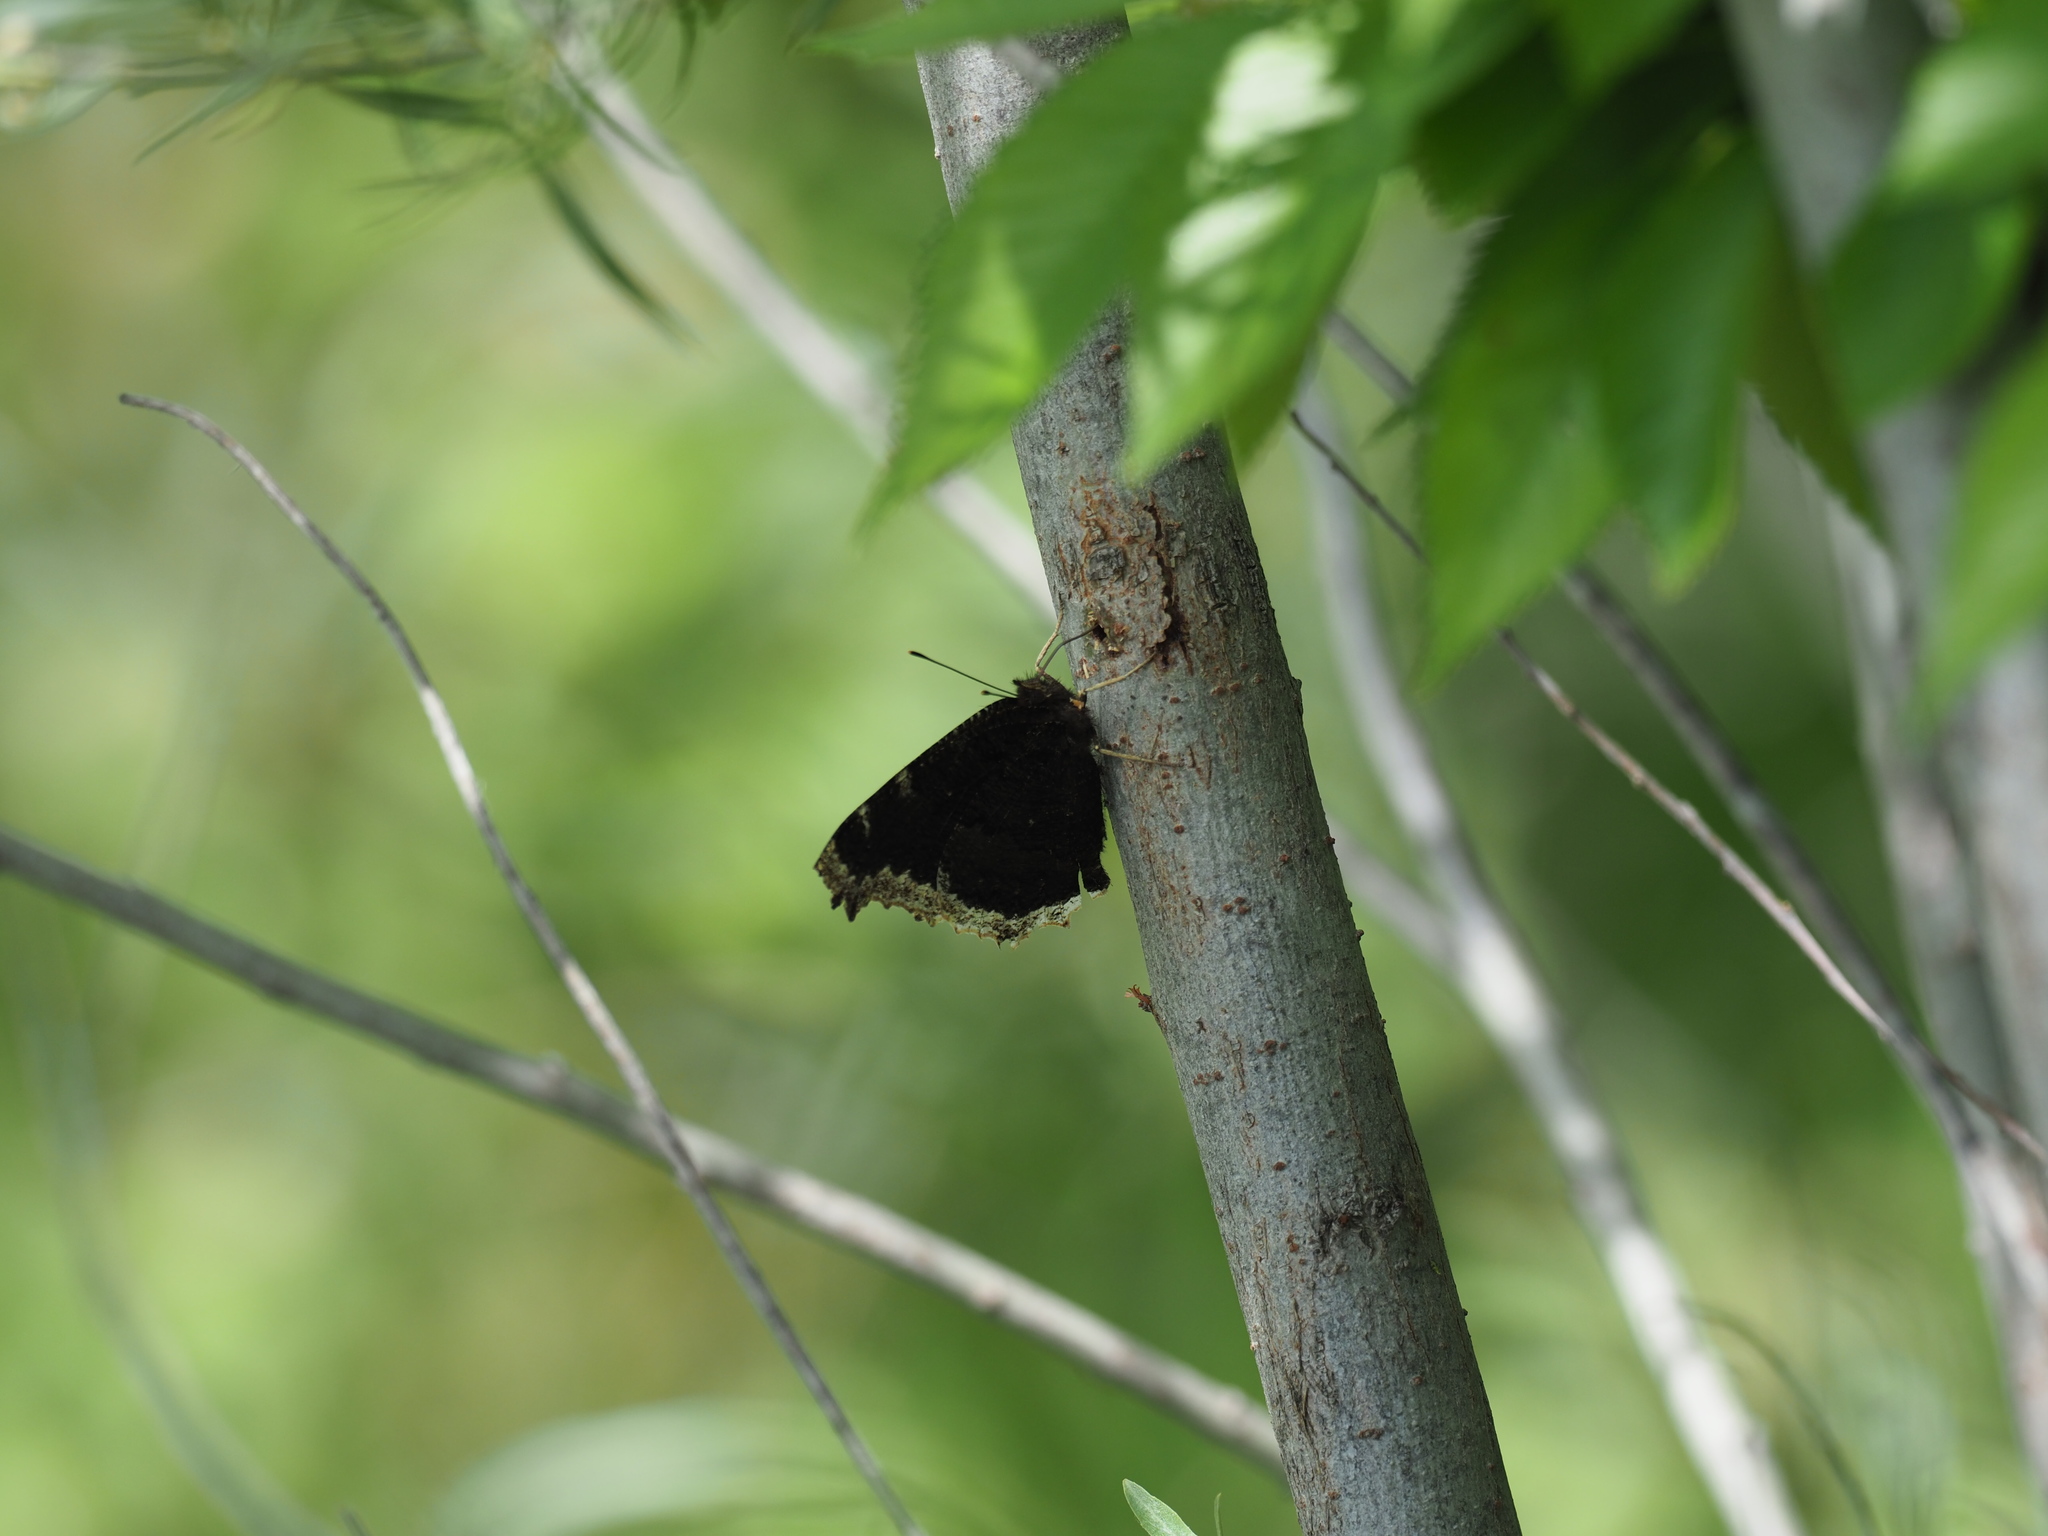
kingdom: Animalia
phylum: Arthropoda
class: Insecta
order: Lepidoptera
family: Nymphalidae
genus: Nymphalis
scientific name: Nymphalis antiopa
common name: Camberwell beauty
